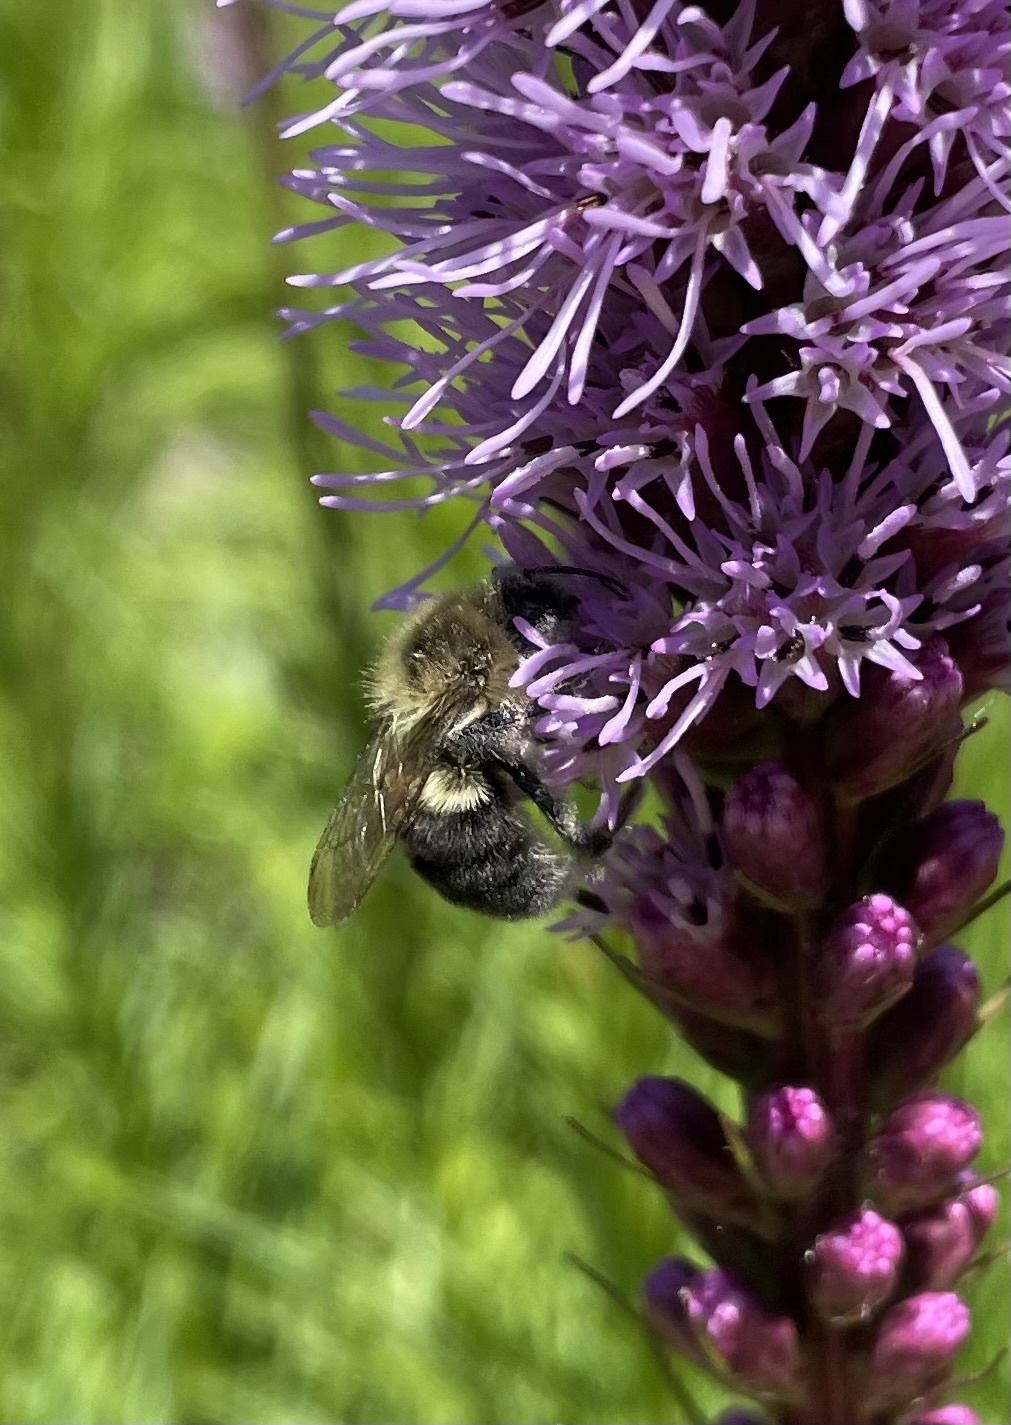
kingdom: Animalia
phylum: Arthropoda
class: Insecta
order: Hymenoptera
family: Apidae
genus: Bombus
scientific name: Bombus impatiens
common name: Common eastern bumble bee
